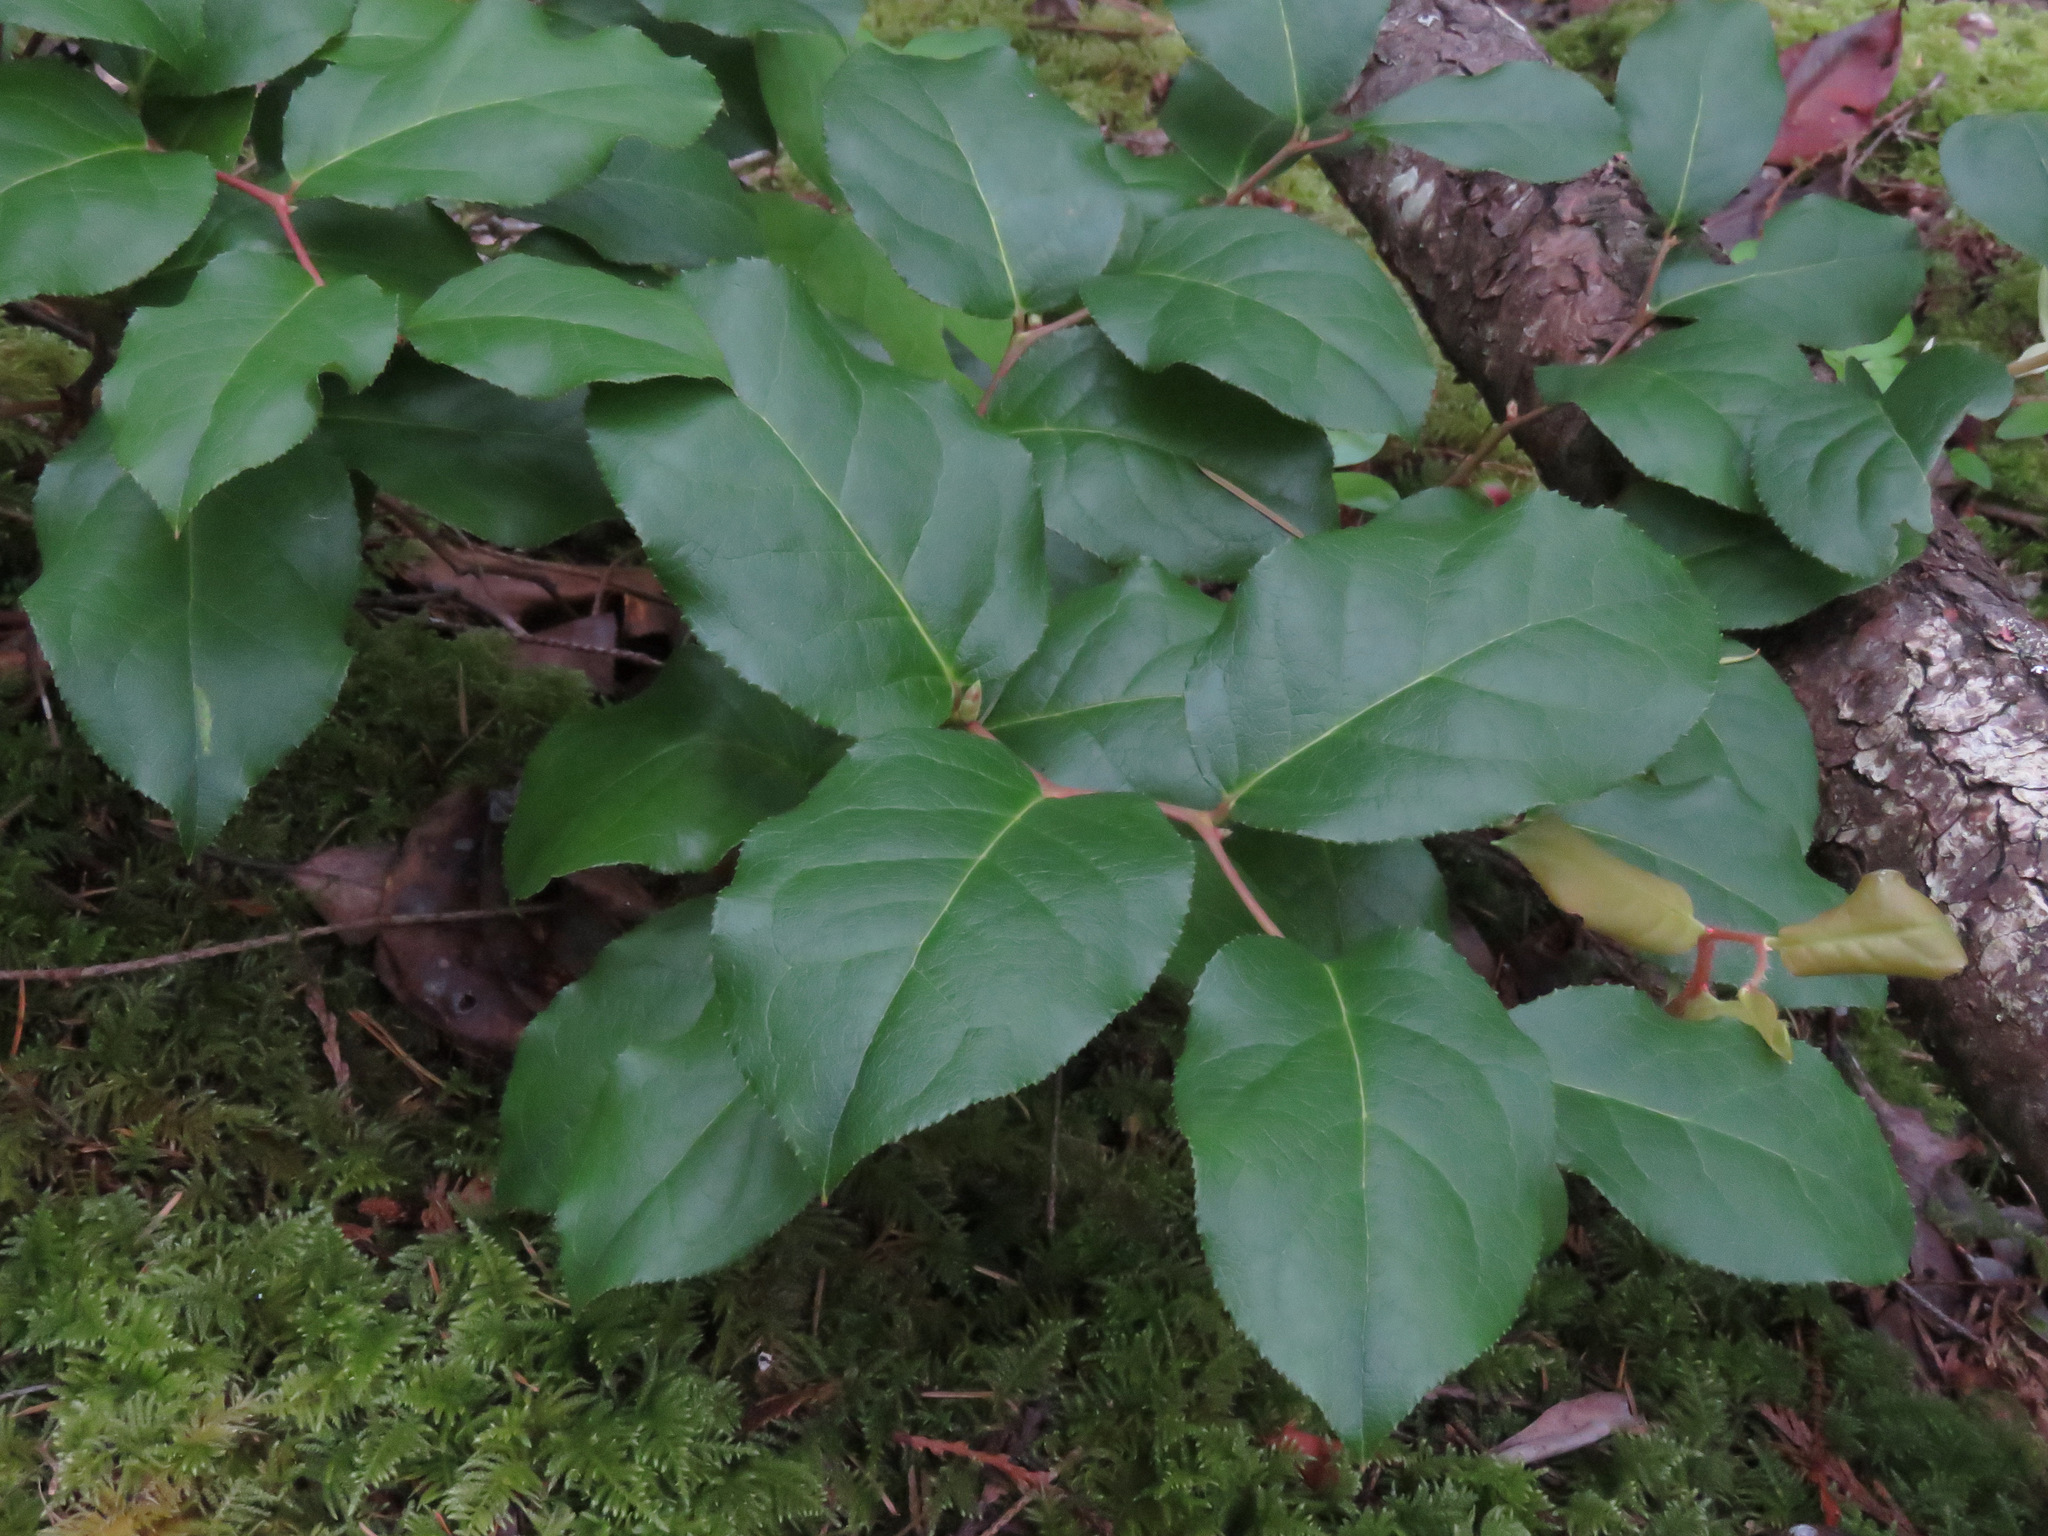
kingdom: Plantae
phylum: Tracheophyta
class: Magnoliopsida
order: Ericales
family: Ericaceae
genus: Gaultheria
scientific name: Gaultheria shallon
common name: Shallon
